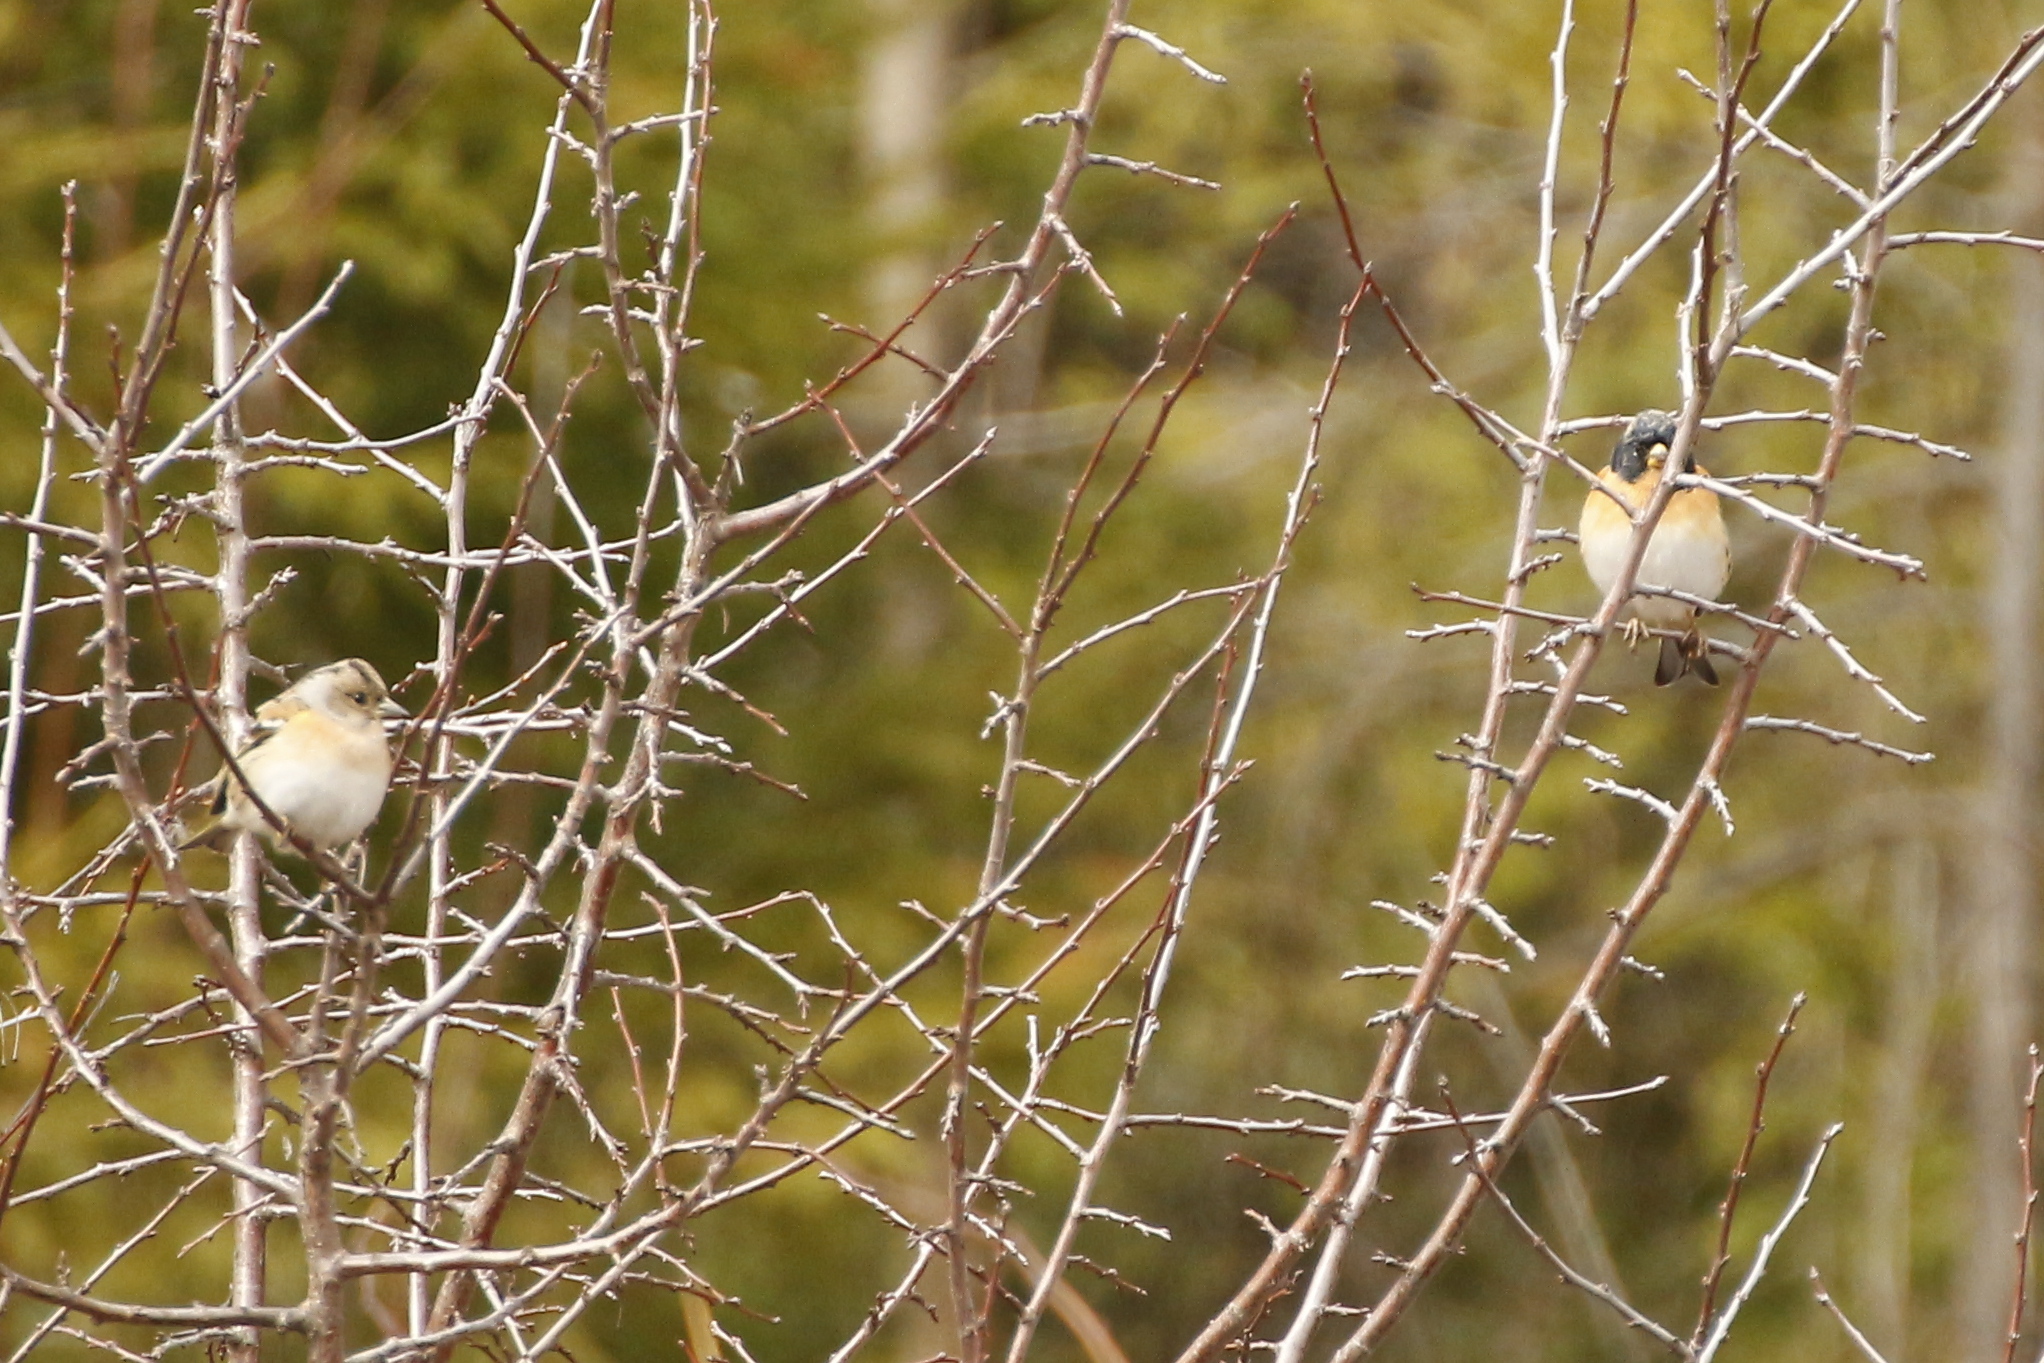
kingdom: Animalia
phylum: Chordata
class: Aves
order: Passeriformes
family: Fringillidae
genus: Fringilla
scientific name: Fringilla montifringilla
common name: Brambling
